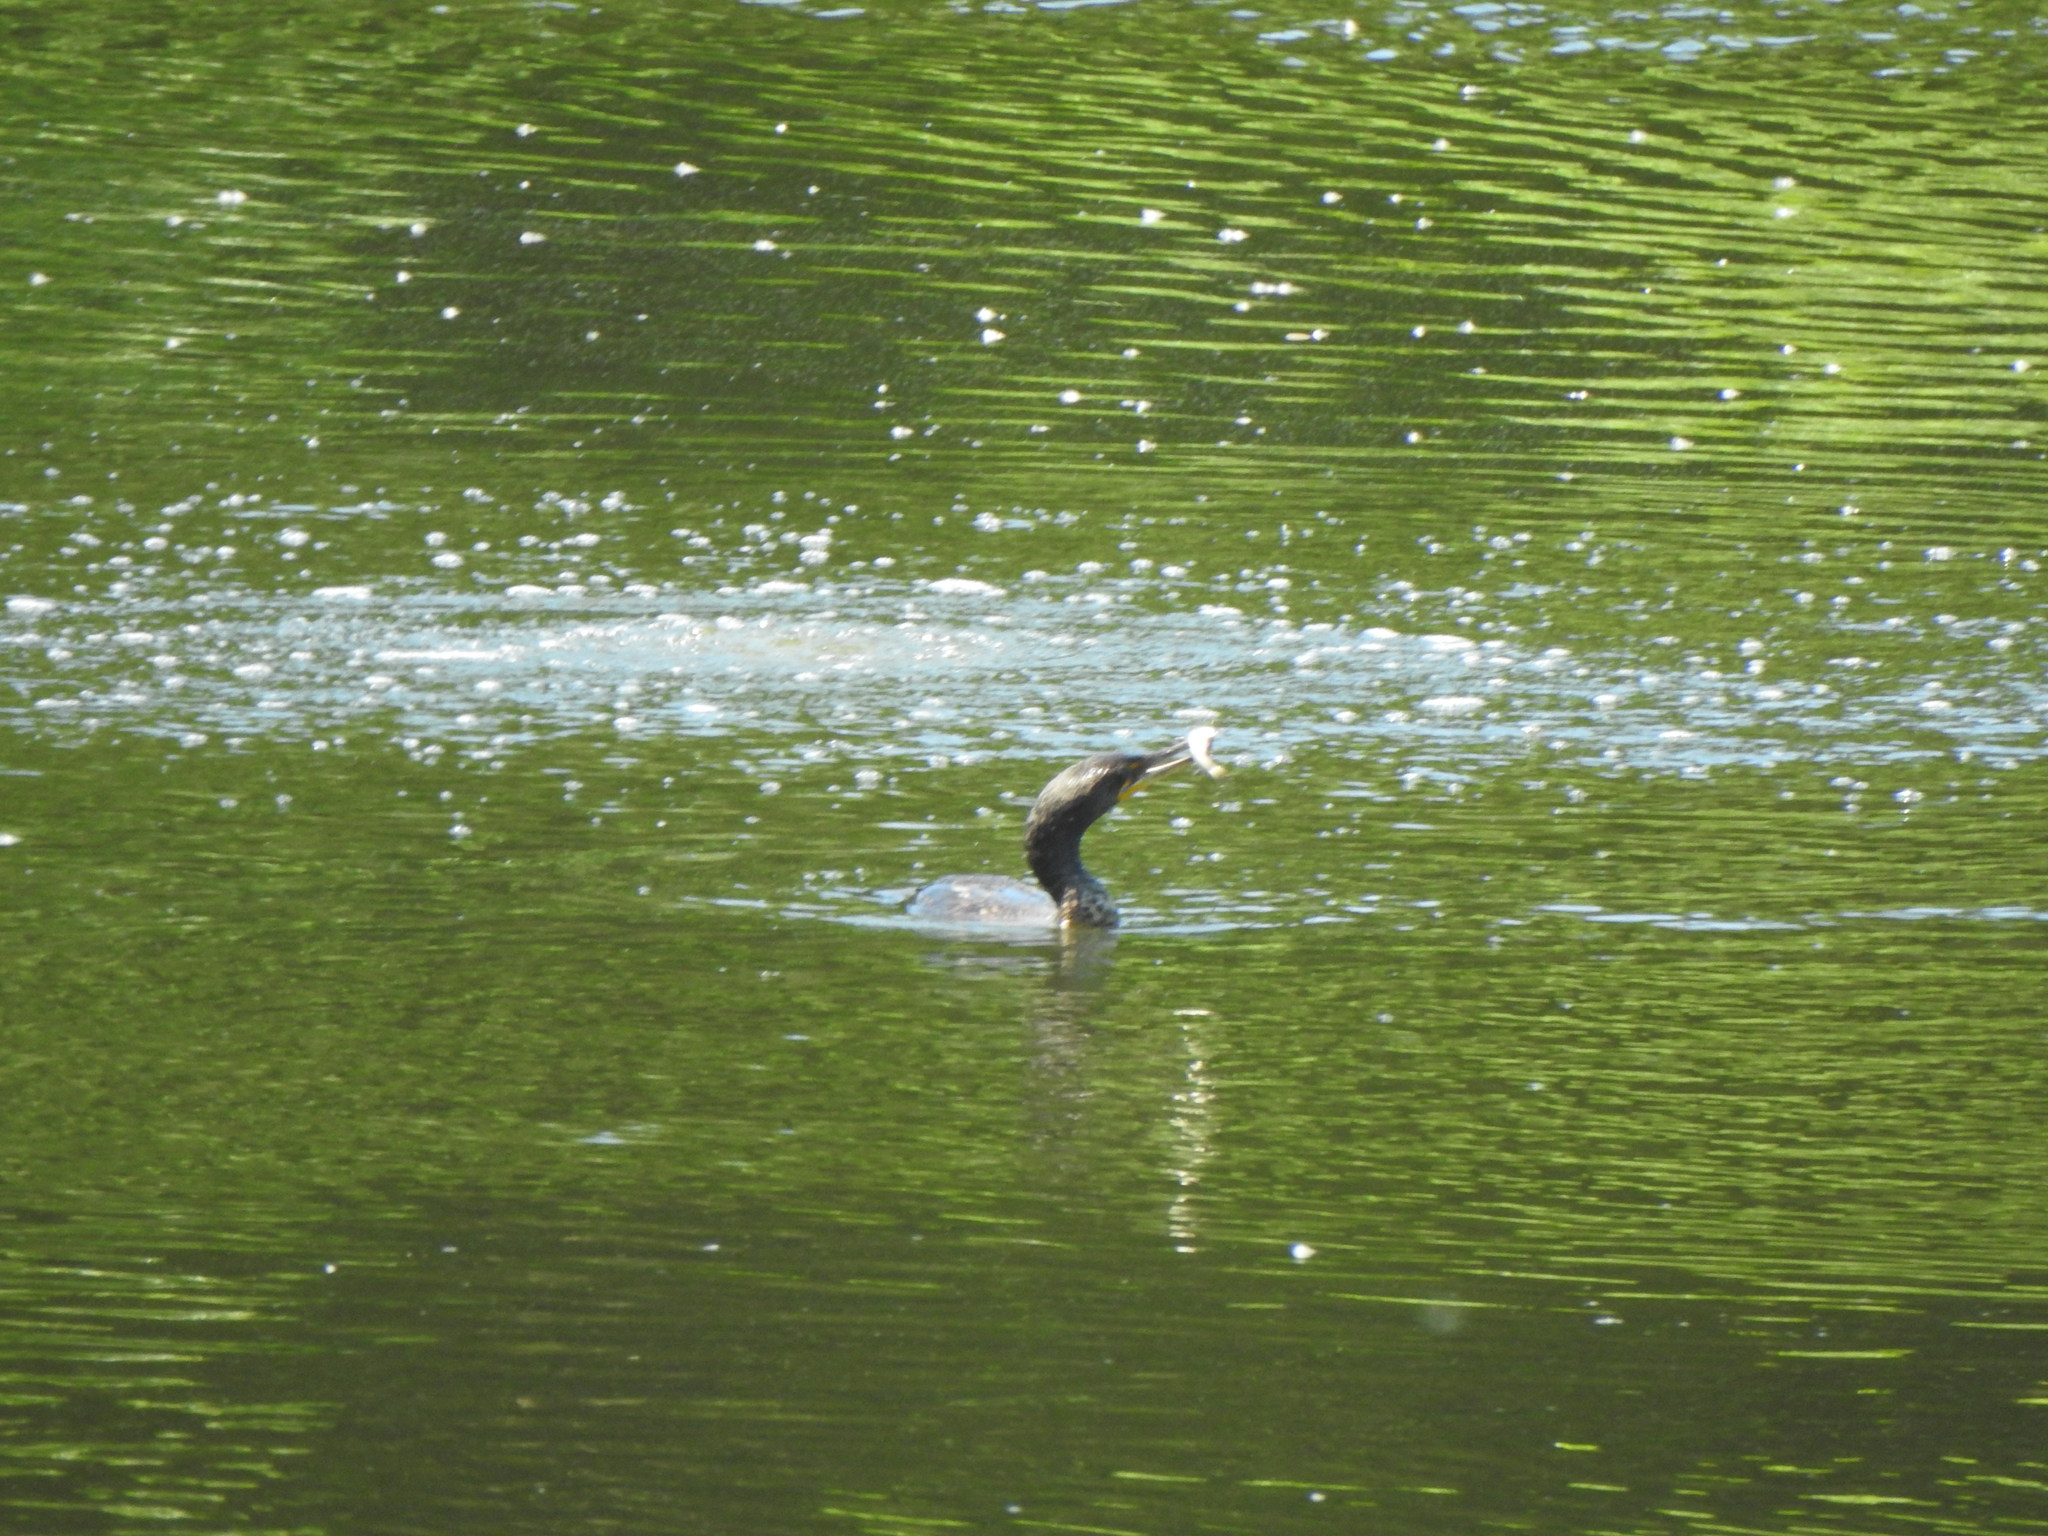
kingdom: Animalia
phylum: Chordata
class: Aves
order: Suliformes
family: Phalacrocoracidae
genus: Phalacrocorax
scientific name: Phalacrocorax auritus
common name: Double-crested cormorant
